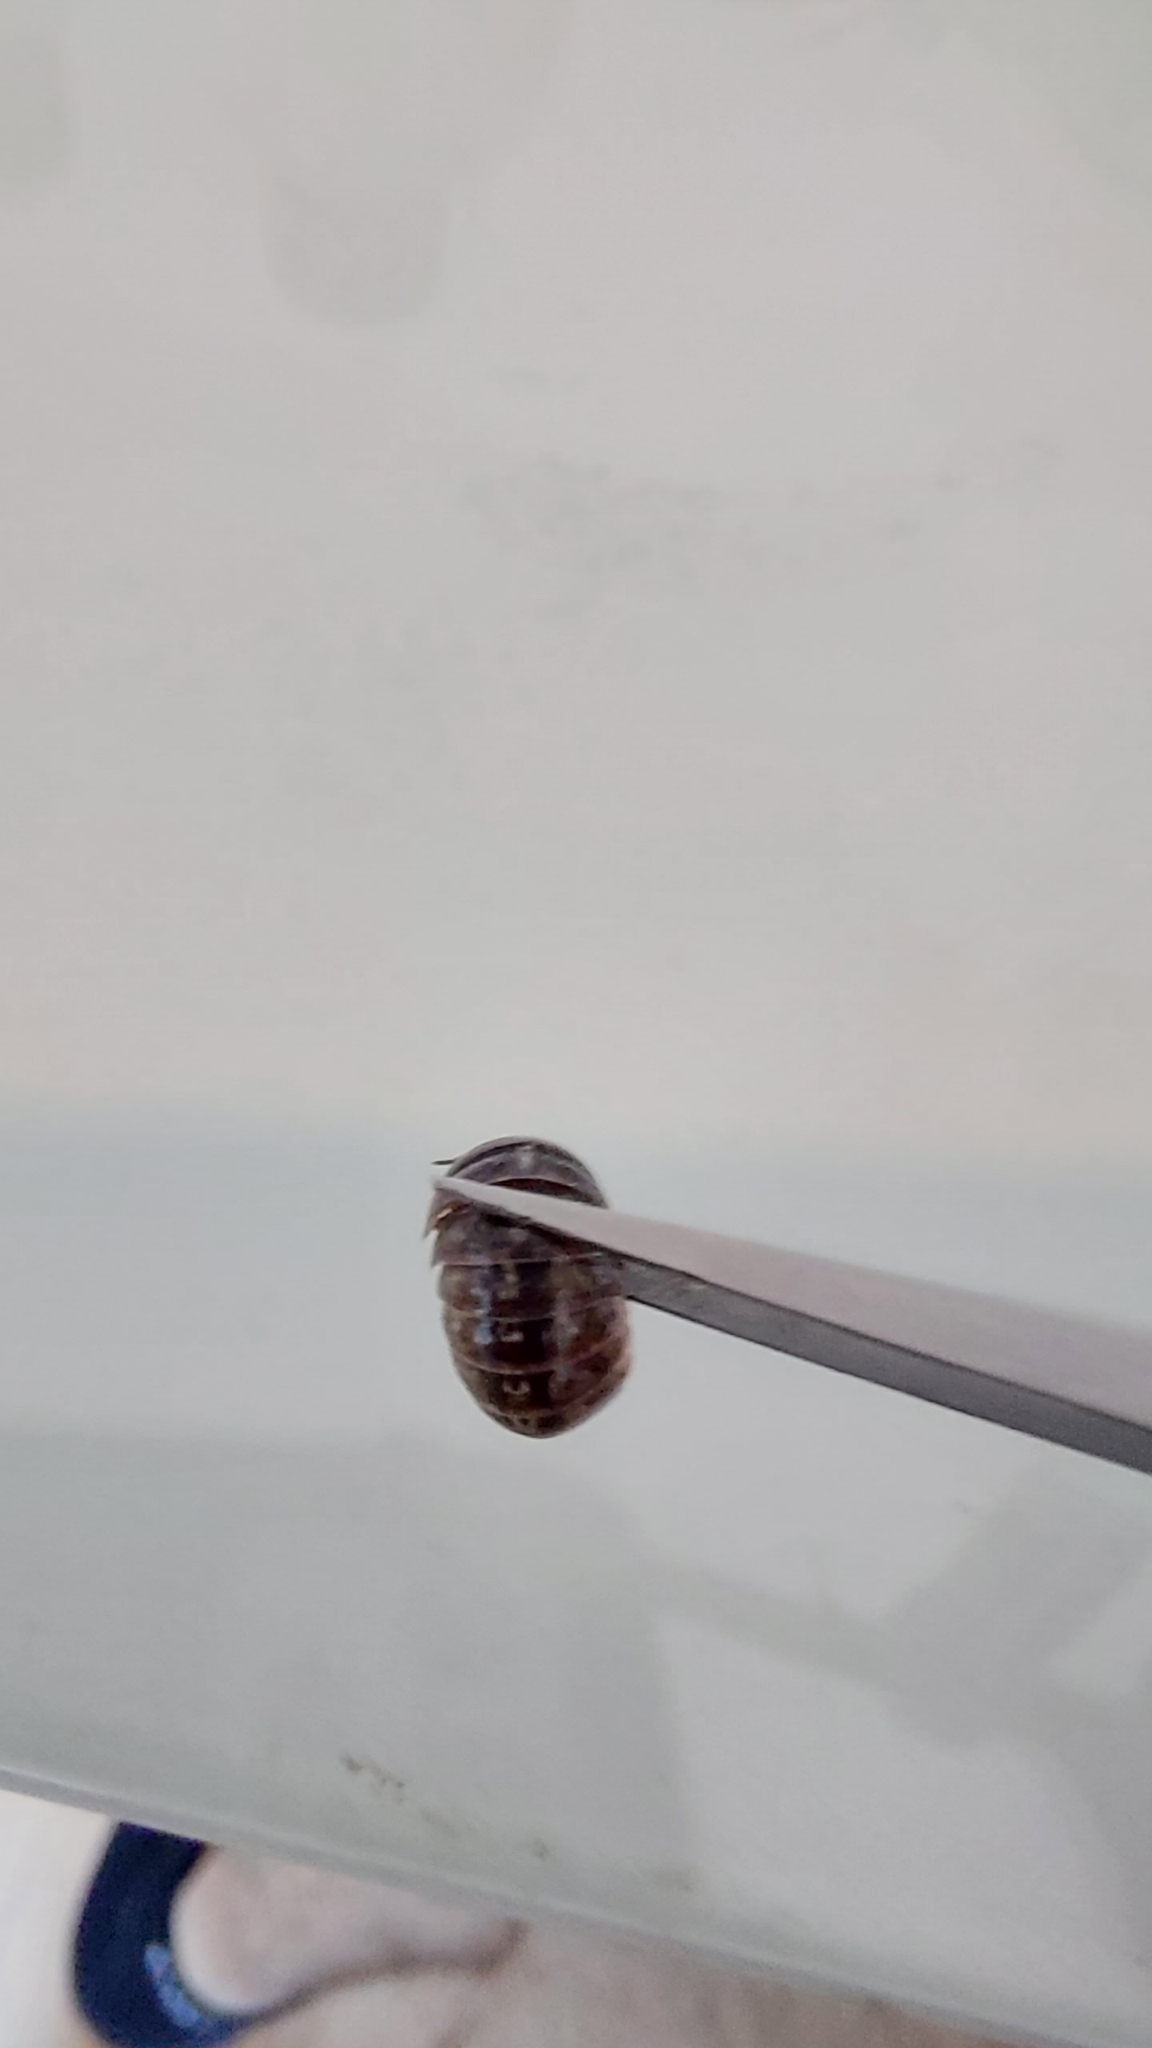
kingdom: Animalia
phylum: Arthropoda
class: Malacostraca
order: Isopoda
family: Armadillidiidae
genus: Armadillidium
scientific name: Armadillidium vulgare
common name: Common pill woodlouse
